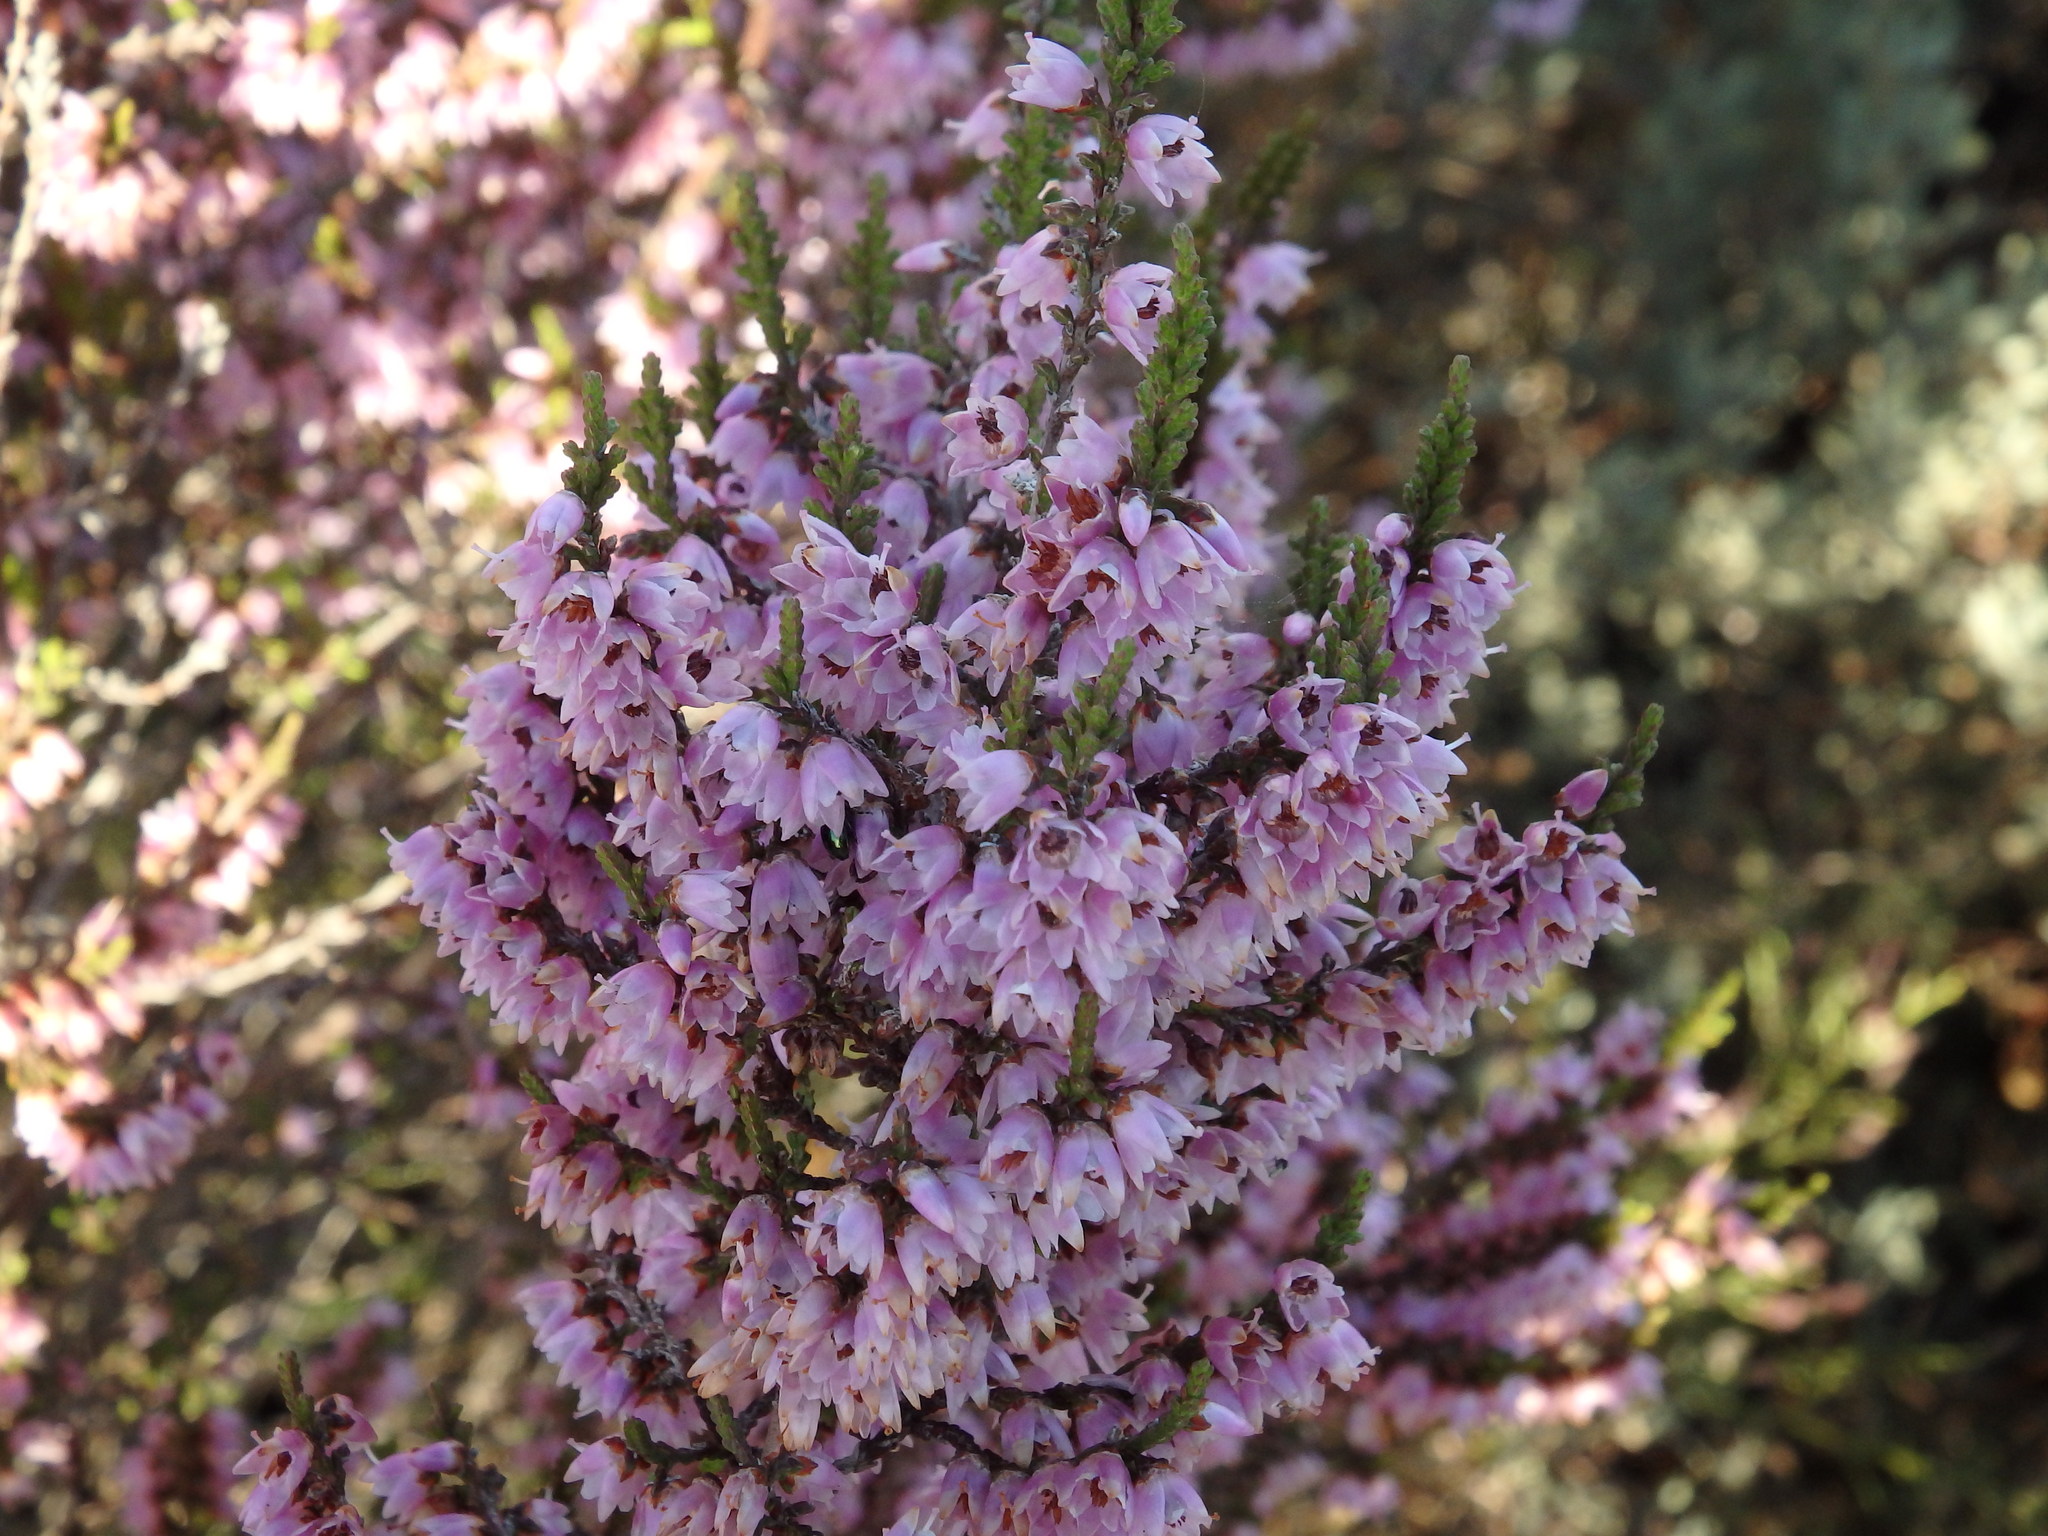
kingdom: Plantae
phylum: Tracheophyta
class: Magnoliopsida
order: Ericales
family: Ericaceae
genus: Calluna
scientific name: Calluna vulgaris
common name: Heather
